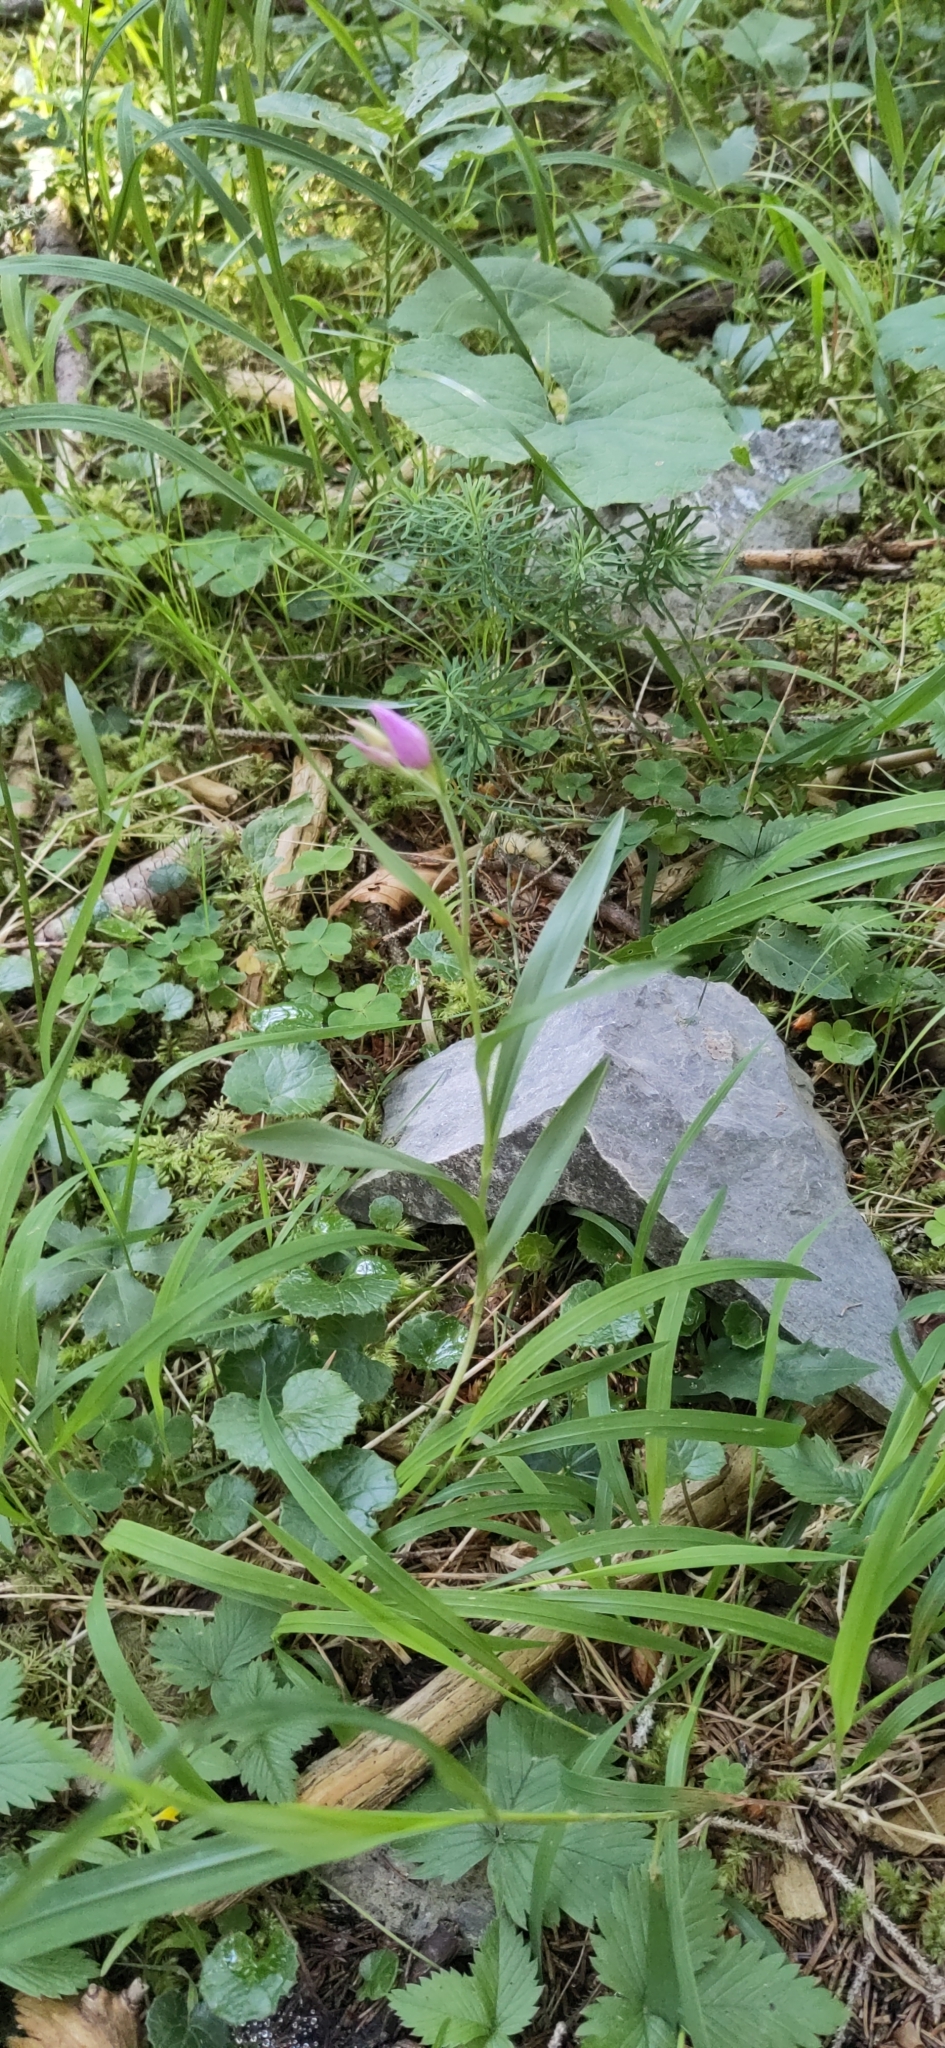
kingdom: Plantae
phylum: Tracheophyta
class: Liliopsida
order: Asparagales
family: Orchidaceae
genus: Cephalanthera
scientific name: Cephalanthera rubra
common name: Red helleborine
